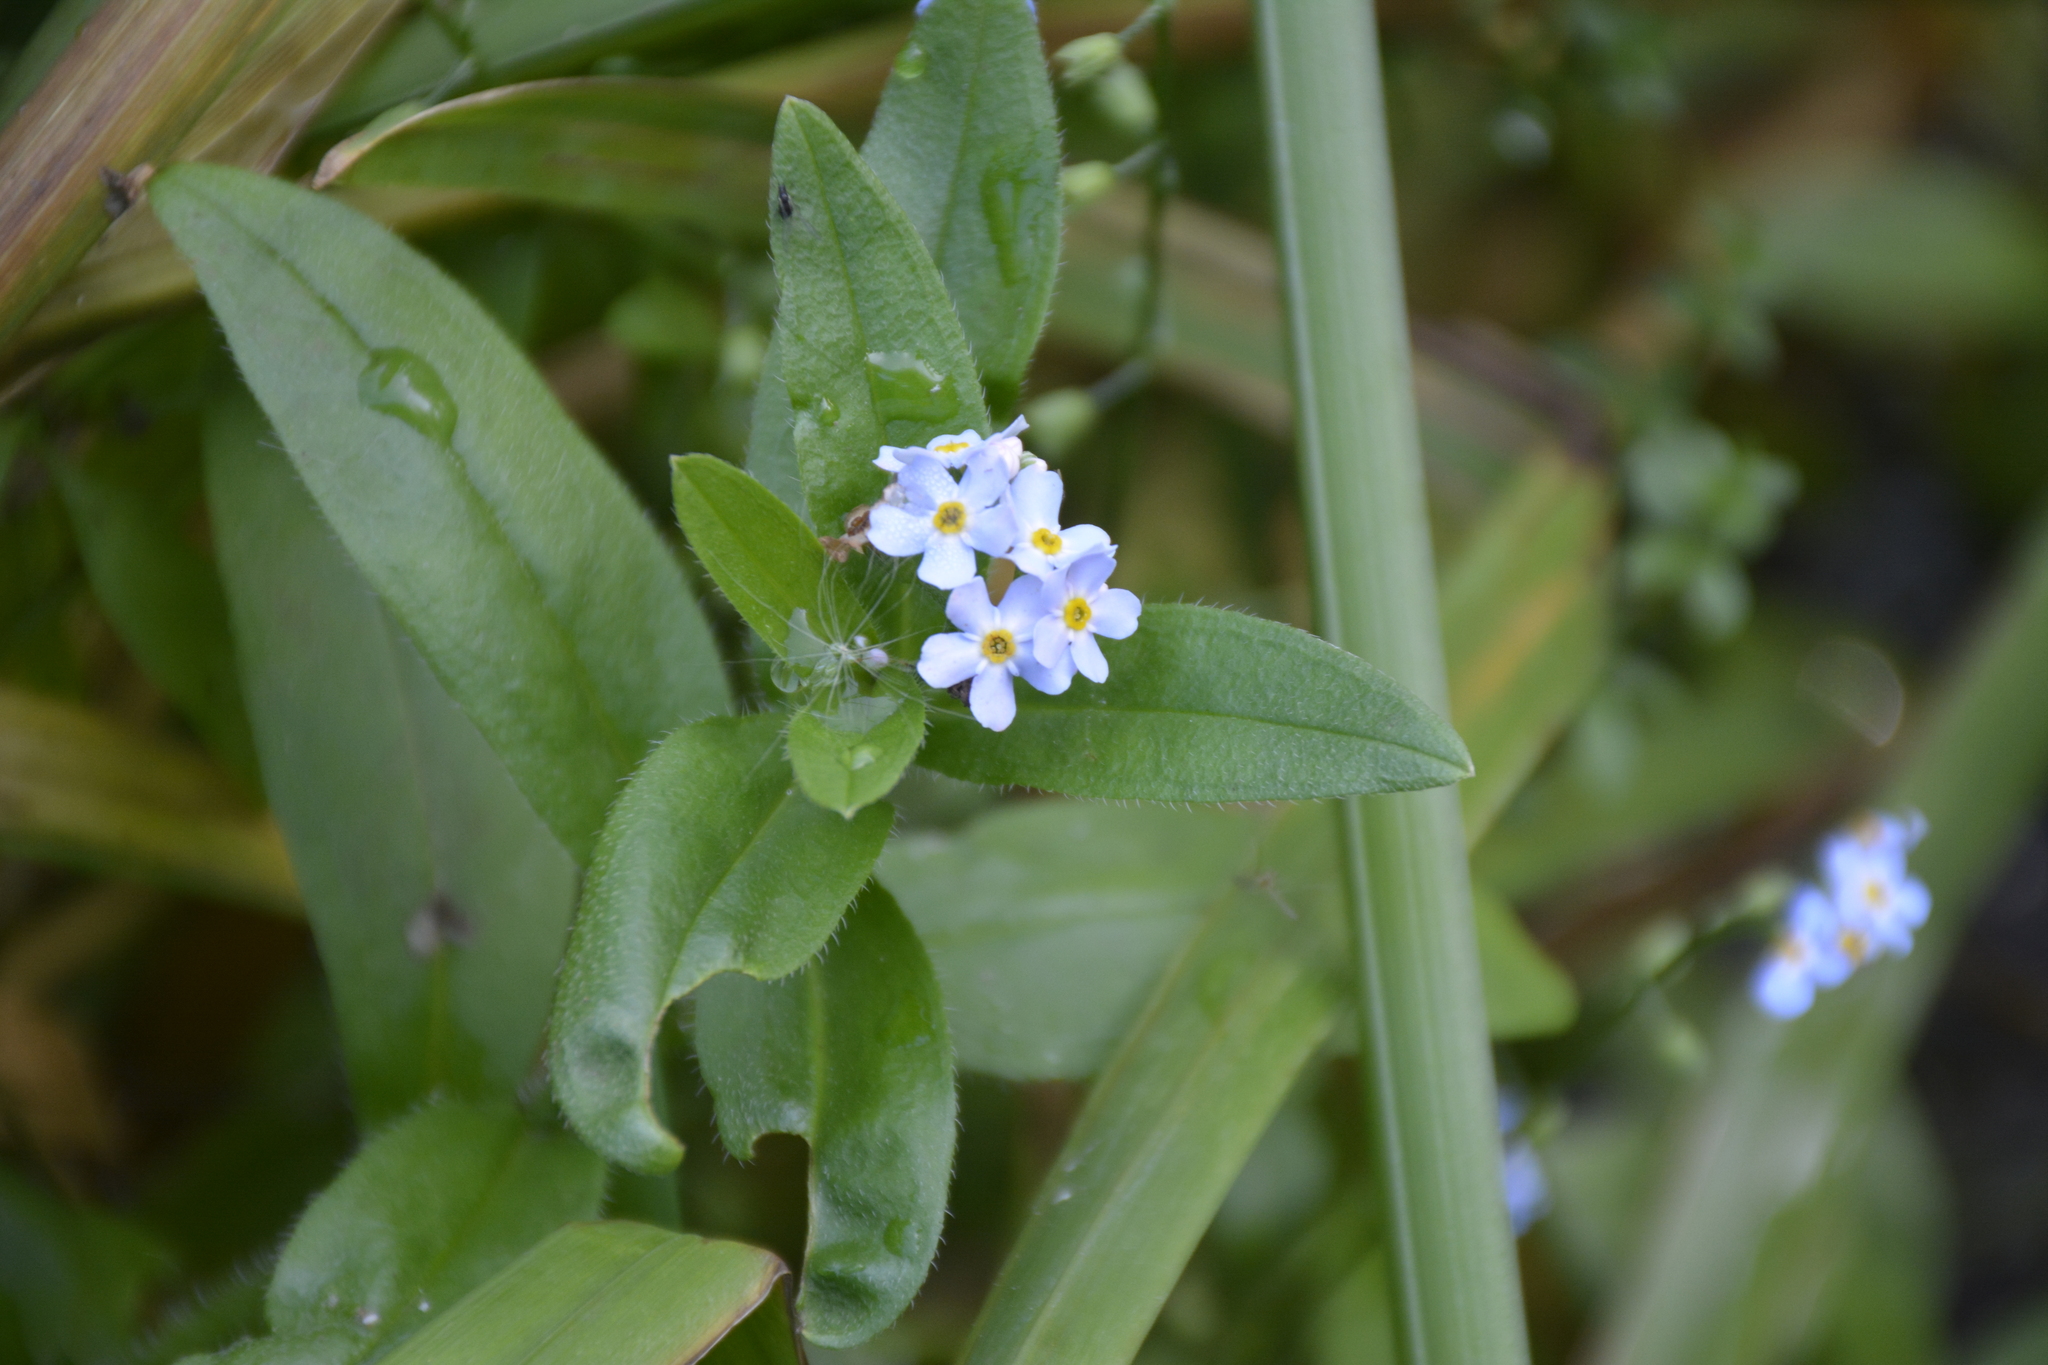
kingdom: Plantae
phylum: Tracheophyta
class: Magnoliopsida
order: Boraginales
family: Boraginaceae
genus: Myosotis
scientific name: Myosotis scorpioides
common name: Water forget-me-not
